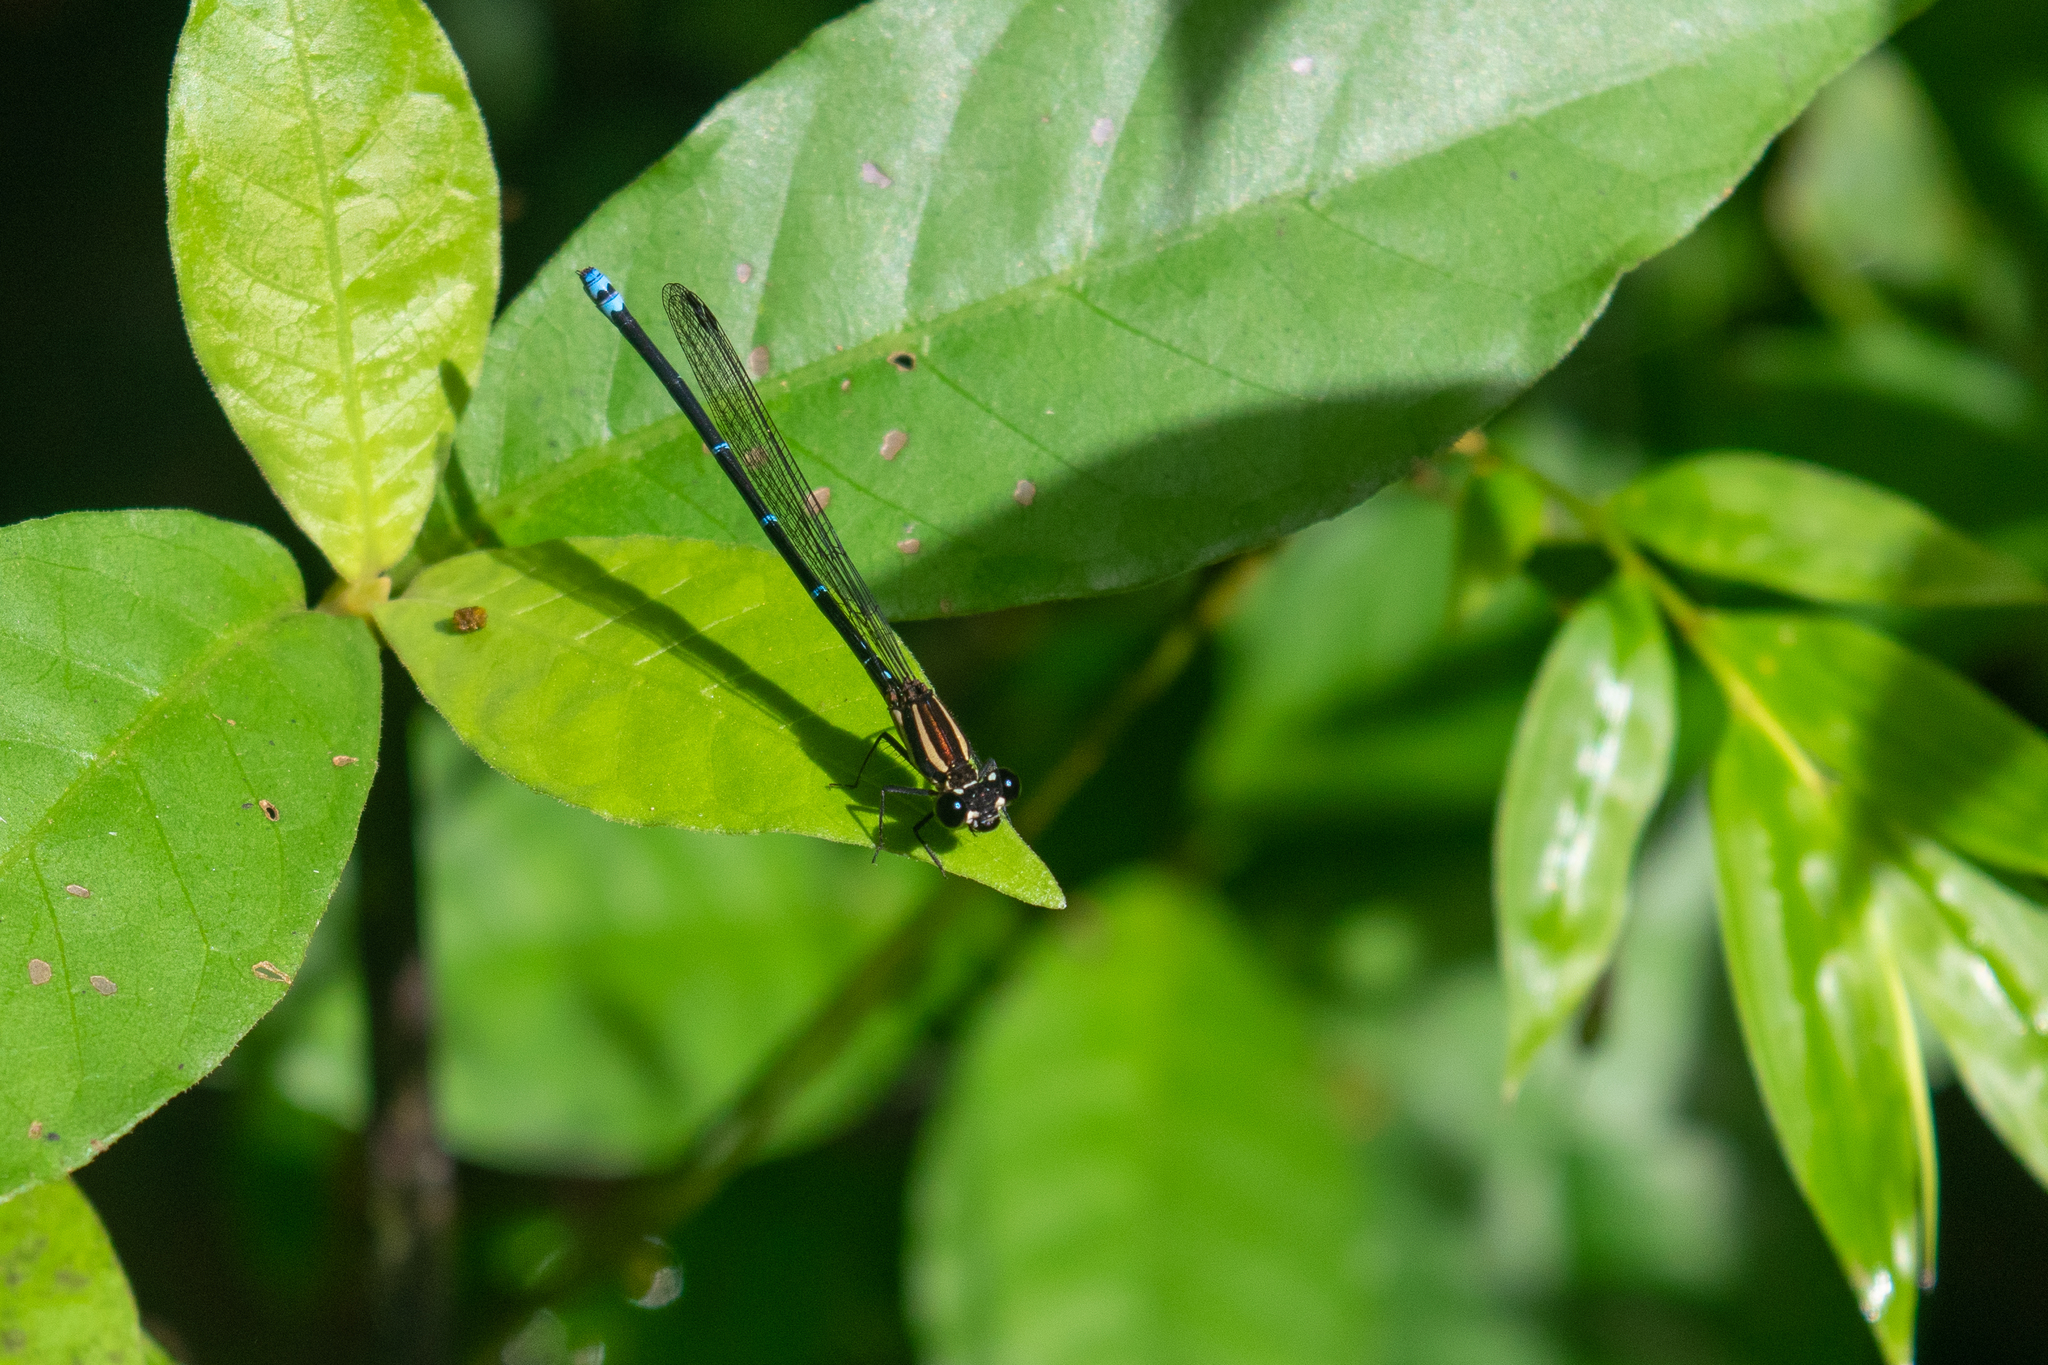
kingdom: Animalia
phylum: Arthropoda
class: Insecta
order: Odonata
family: Coenagrionidae
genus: Argia
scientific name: Argia oculata
